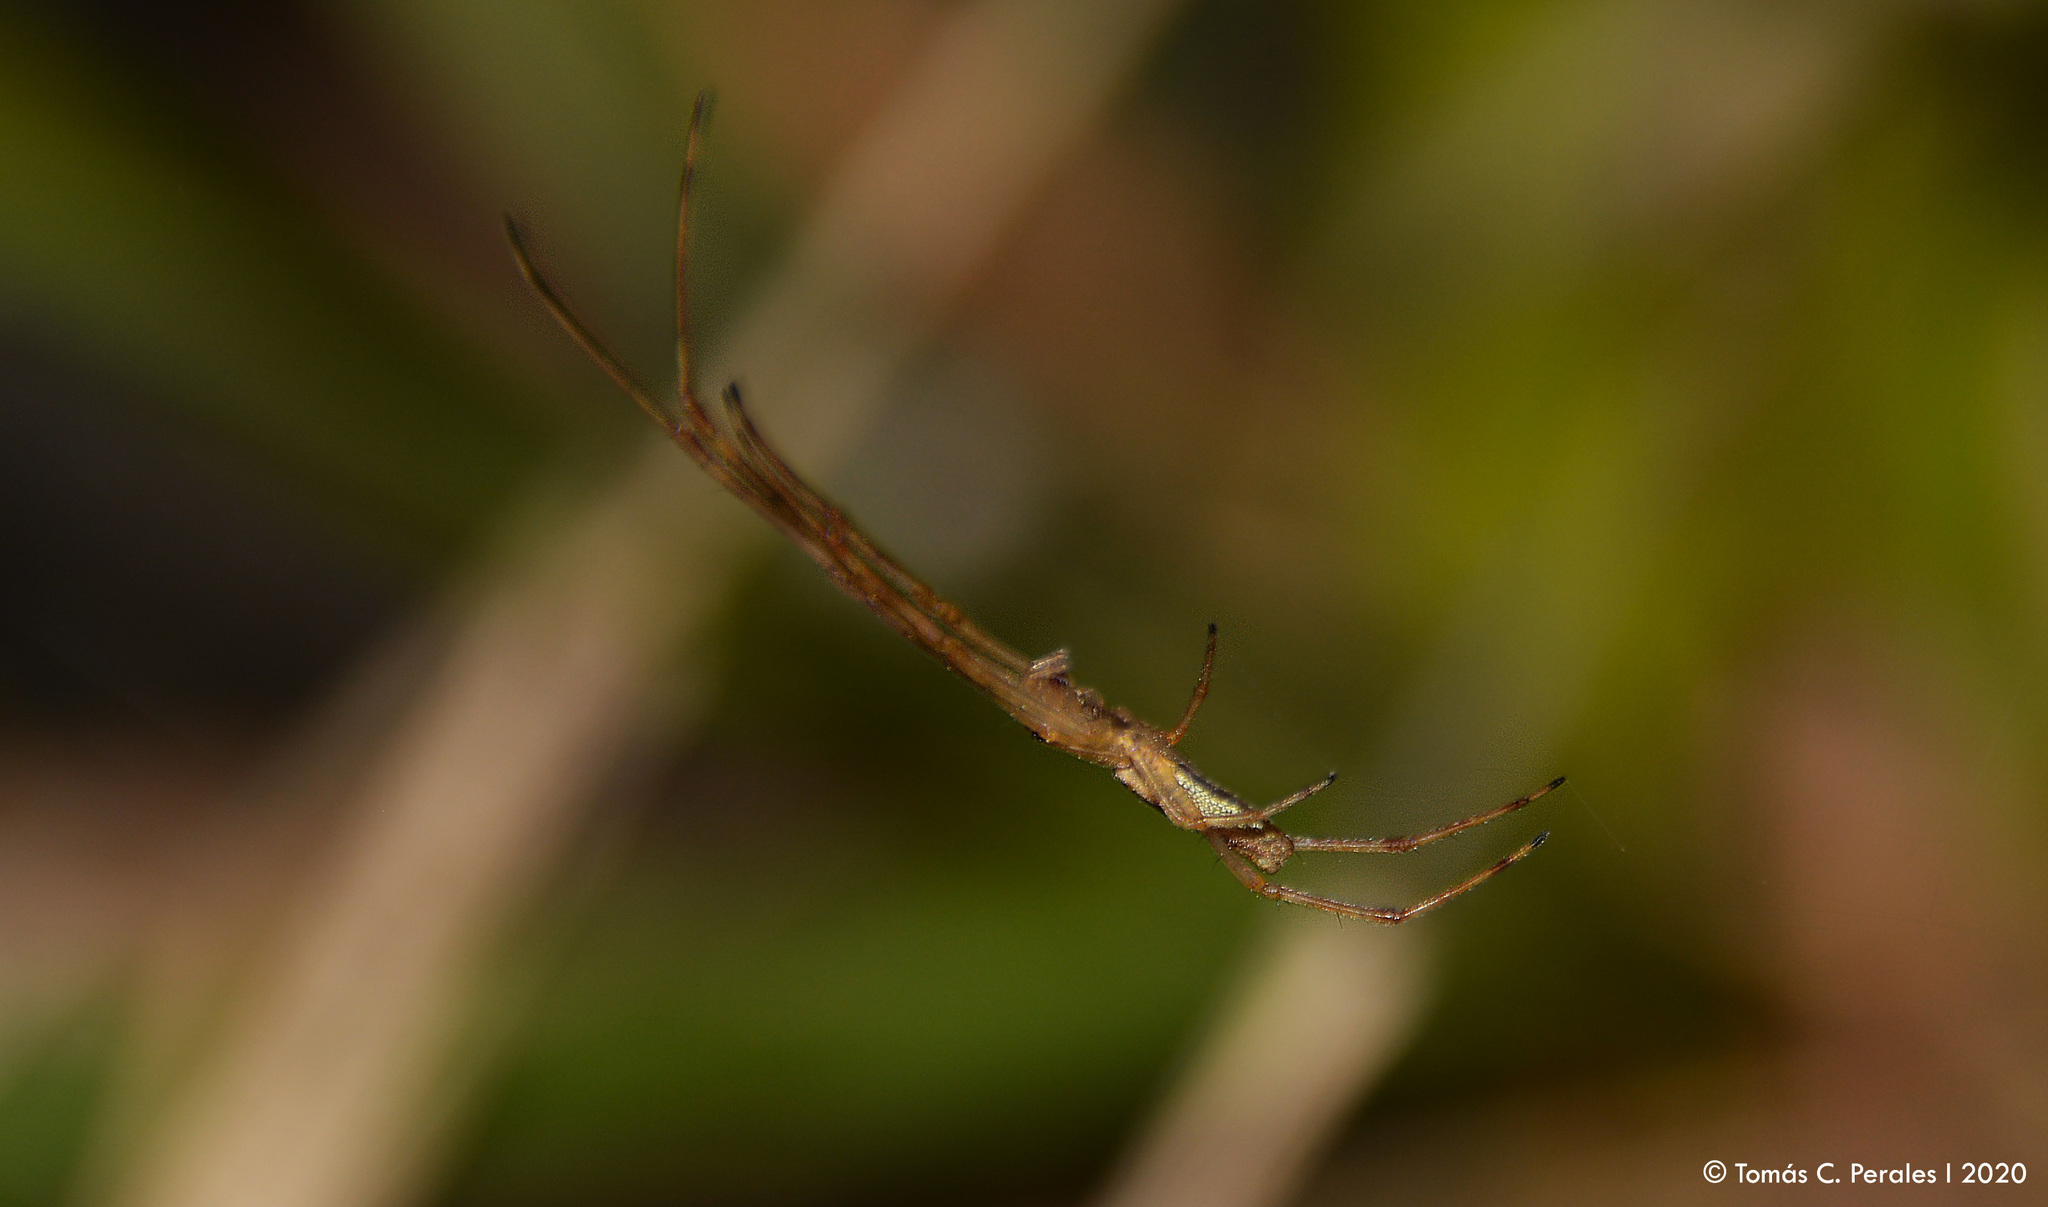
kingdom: Animalia
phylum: Arthropoda
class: Arachnida
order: Araneae
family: Tetragnathidae
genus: Tetragnatha
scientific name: Tetragnatha
